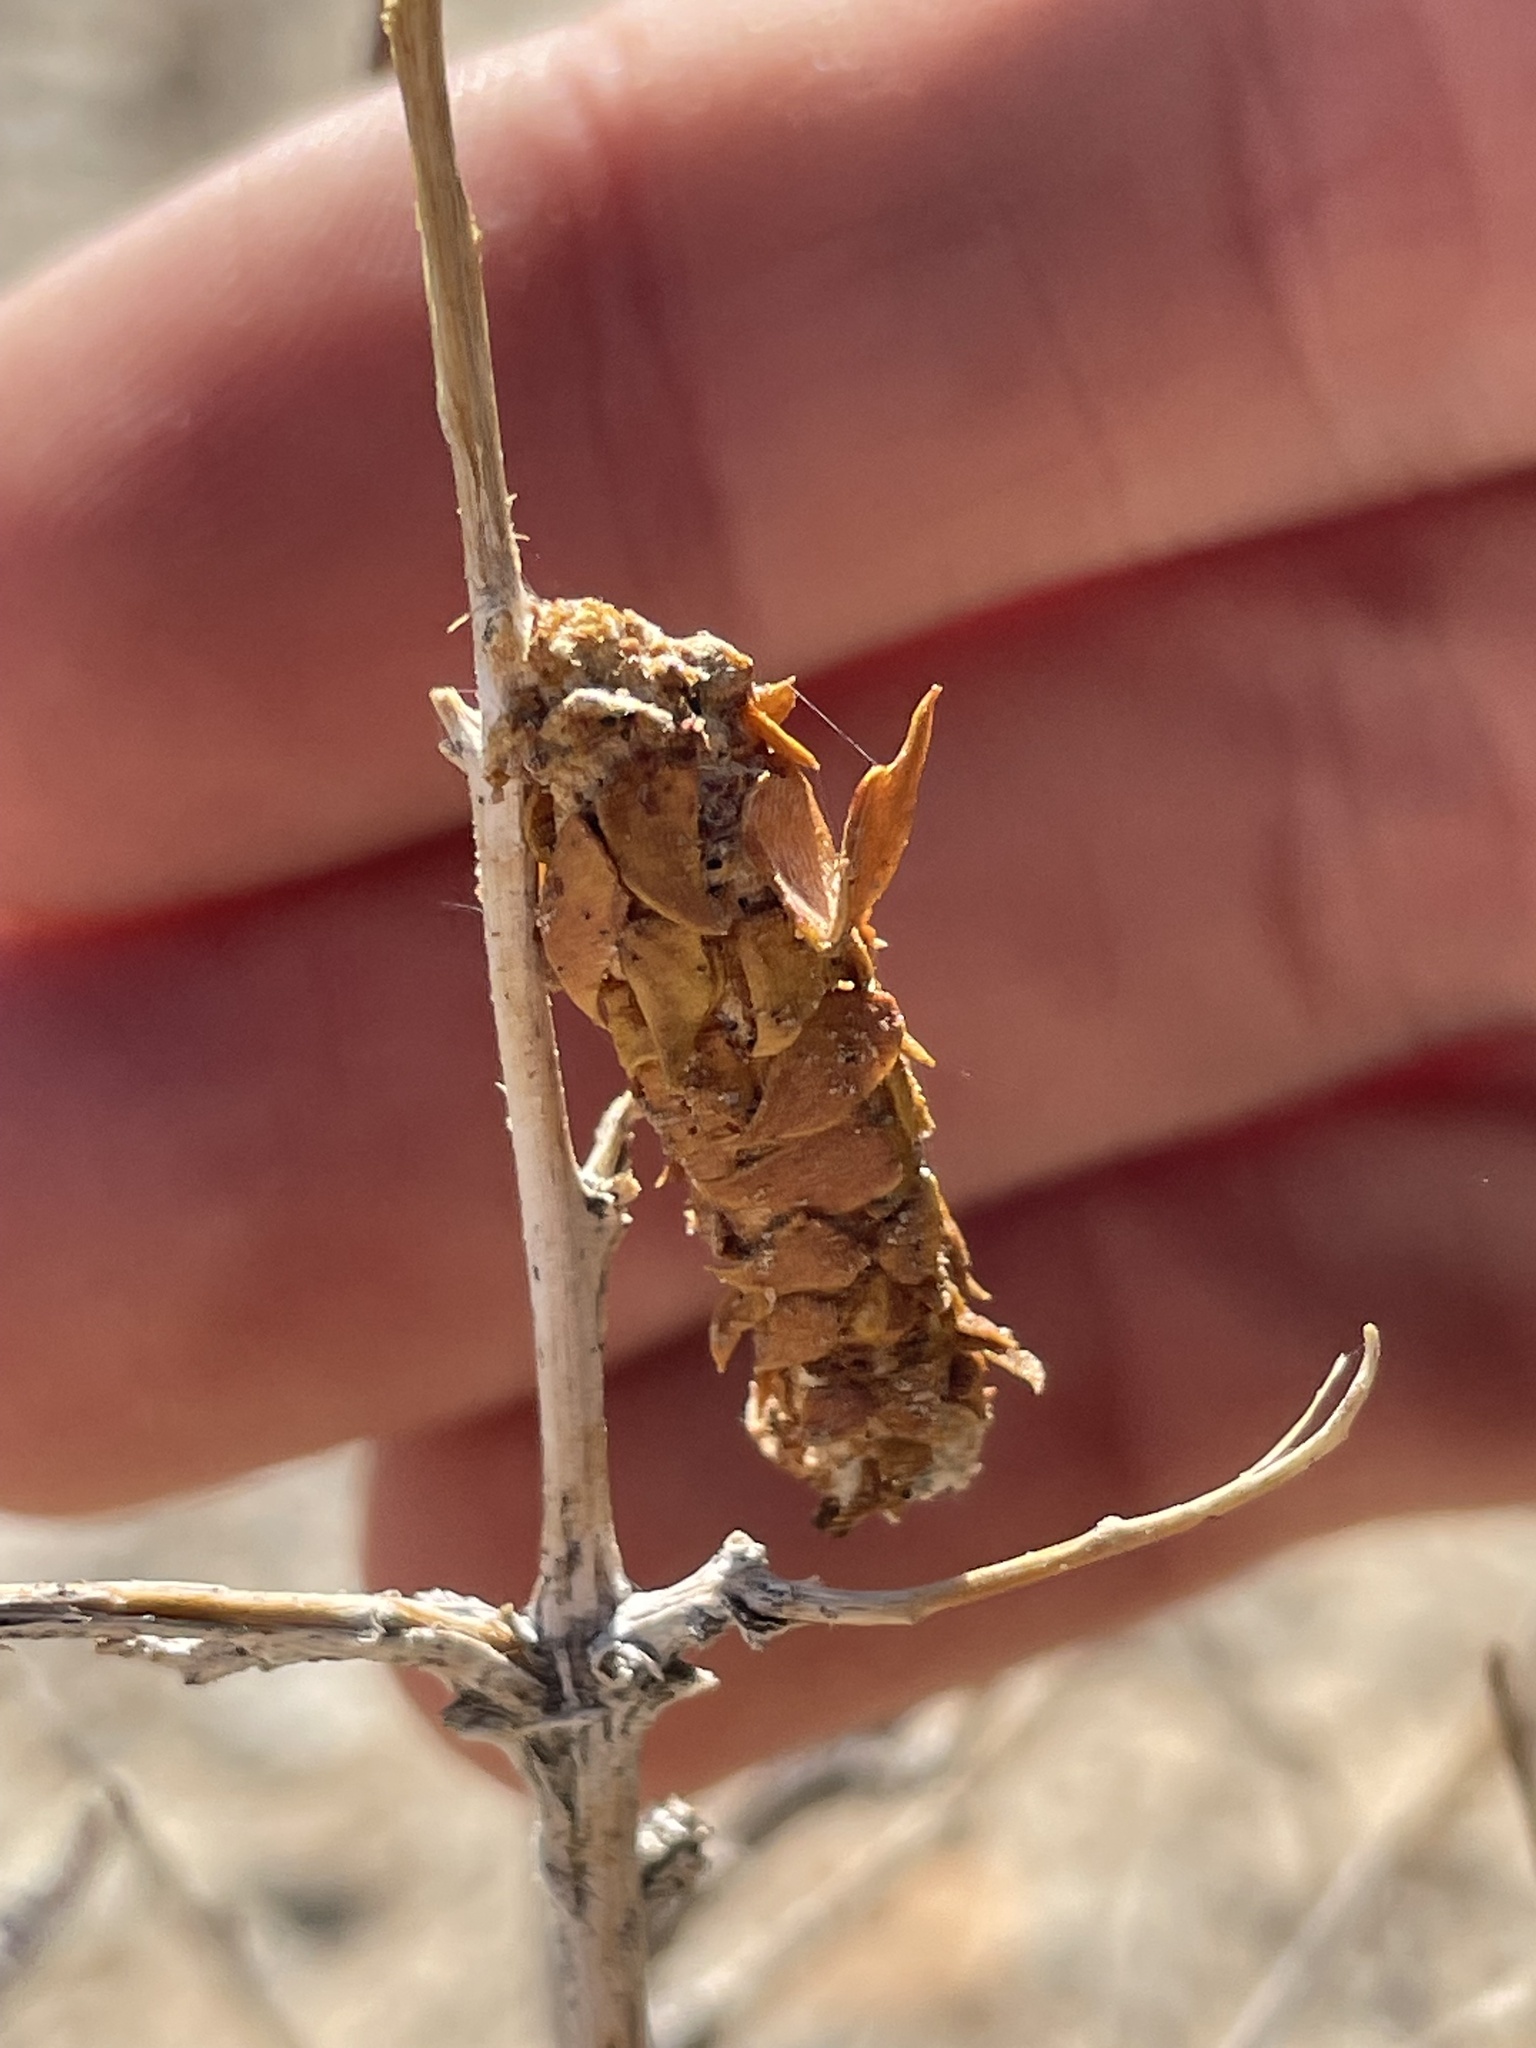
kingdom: Animalia
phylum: Arthropoda
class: Insecta
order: Lepidoptera
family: Psychidae
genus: Thyridopteryx
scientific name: Thyridopteryx meadii
